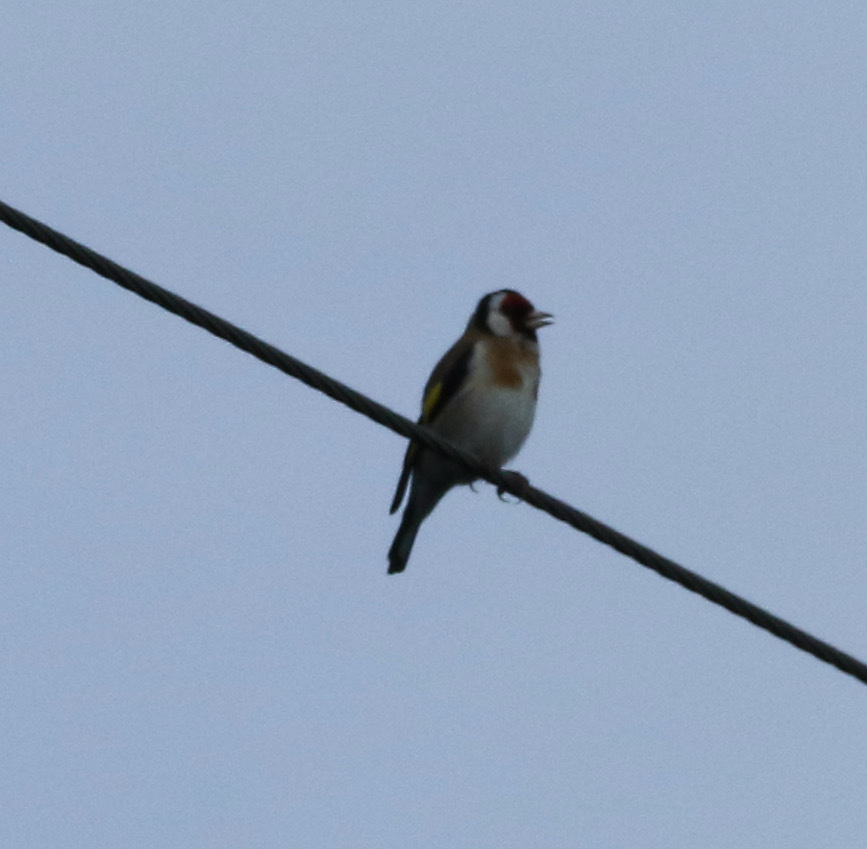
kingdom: Animalia
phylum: Chordata
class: Aves
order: Passeriformes
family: Fringillidae
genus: Carduelis
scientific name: Carduelis carduelis
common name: European goldfinch
